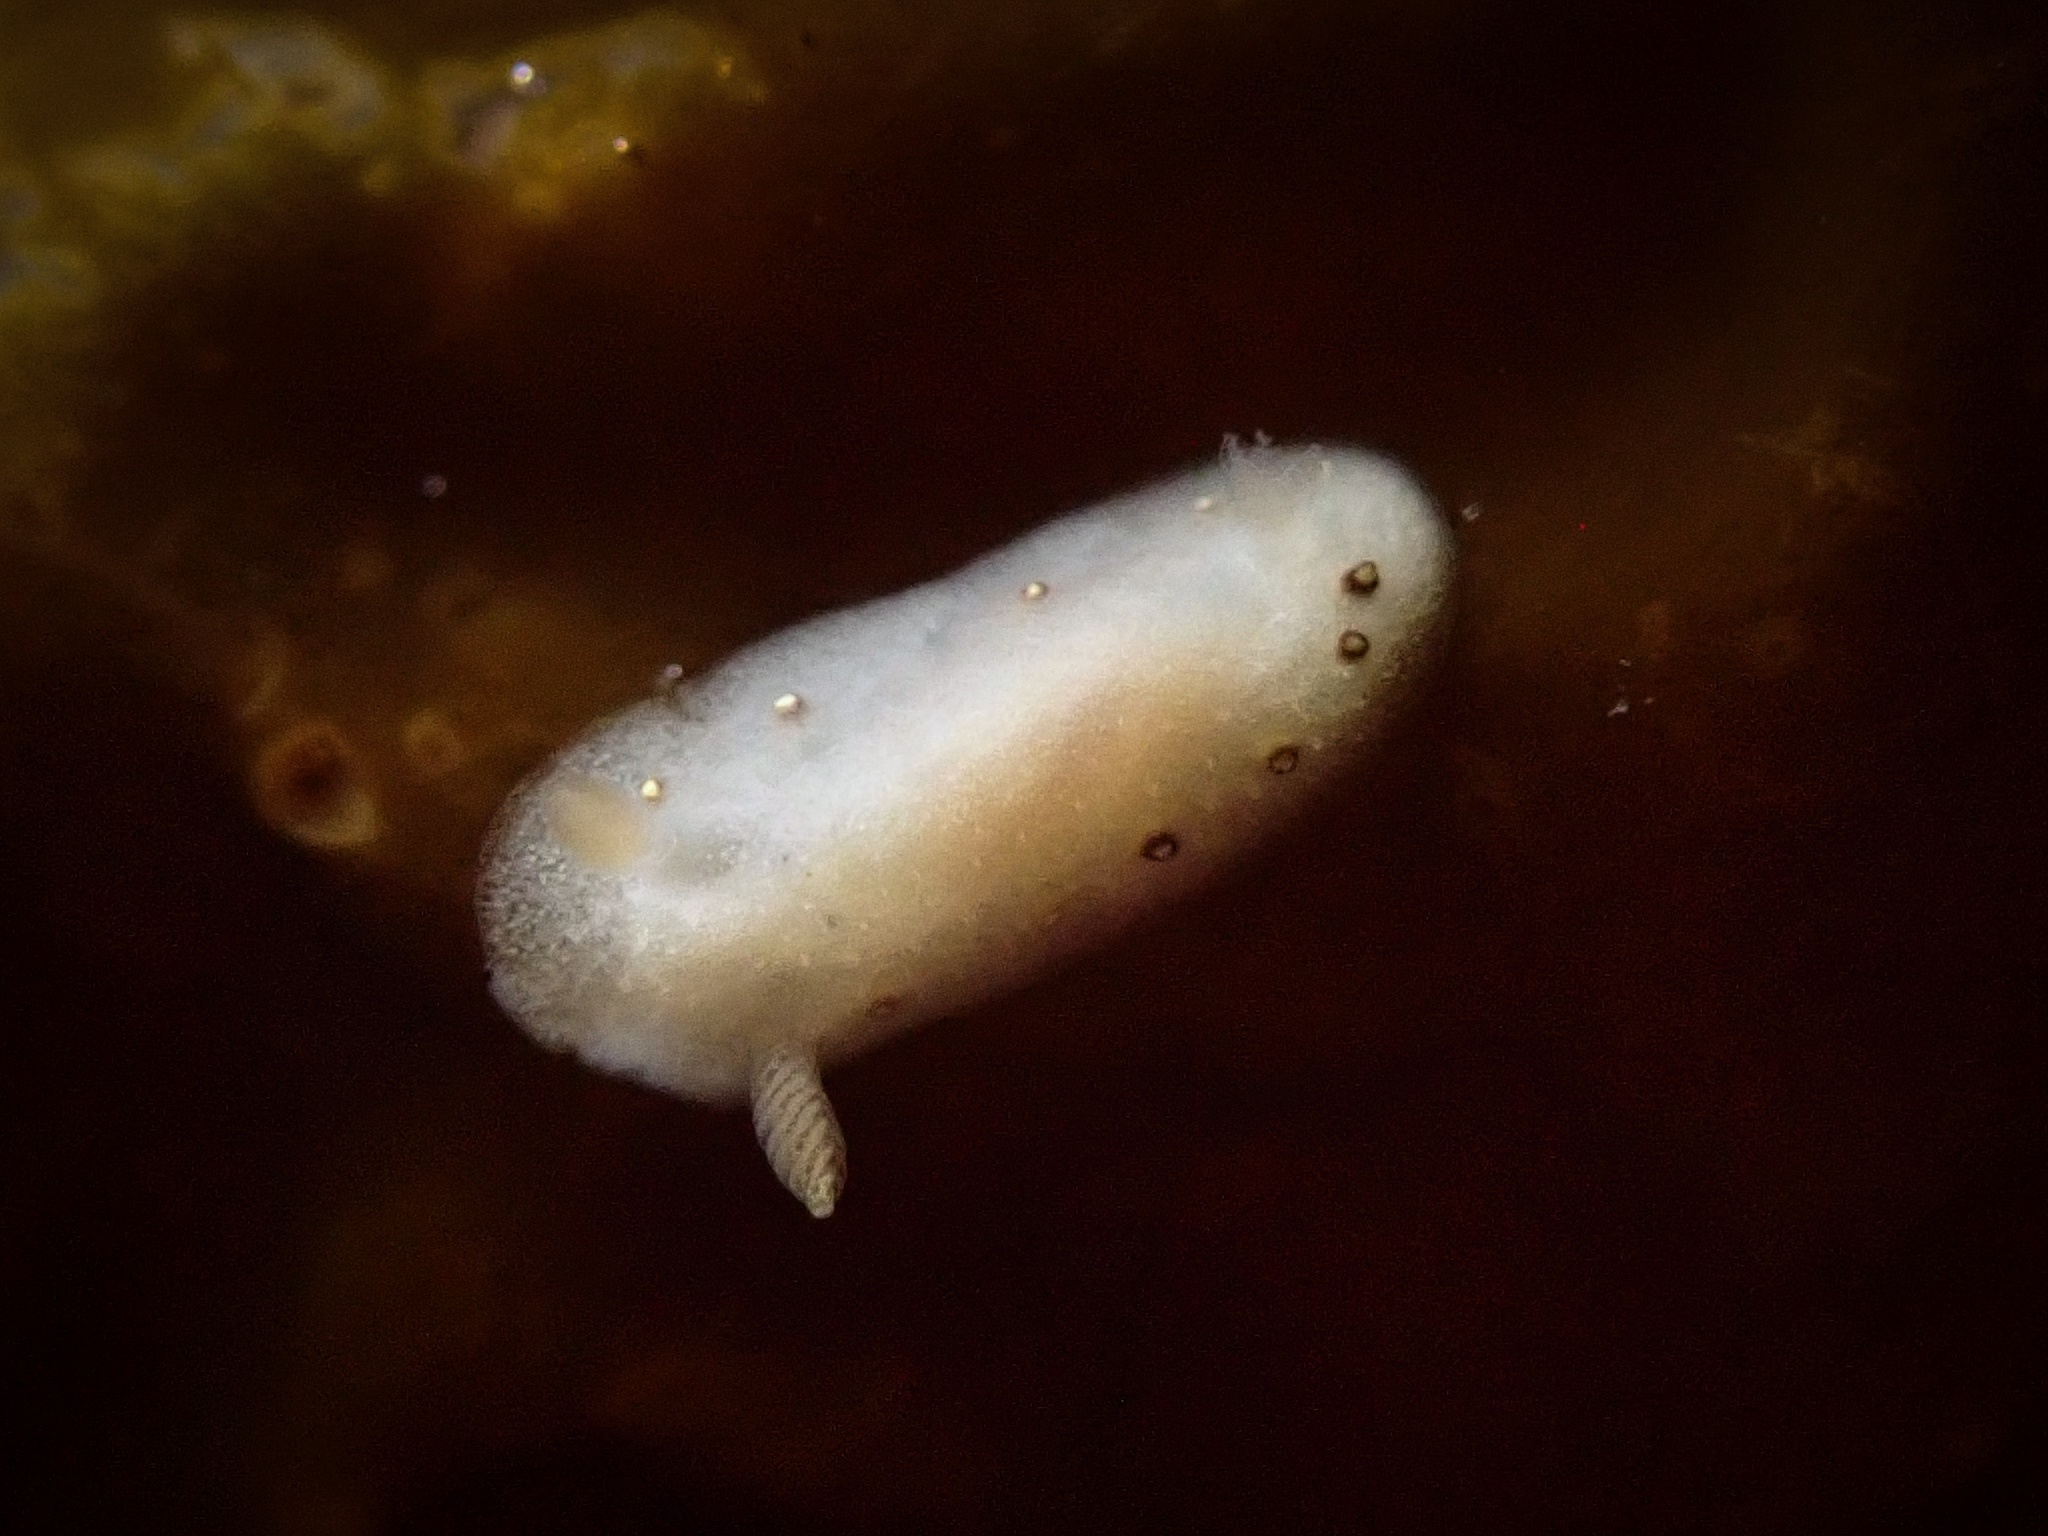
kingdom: Animalia
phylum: Mollusca
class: Gastropoda
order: Nudibranchia
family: Cadlinidae
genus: Cadlina
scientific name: Cadlina sparsa
